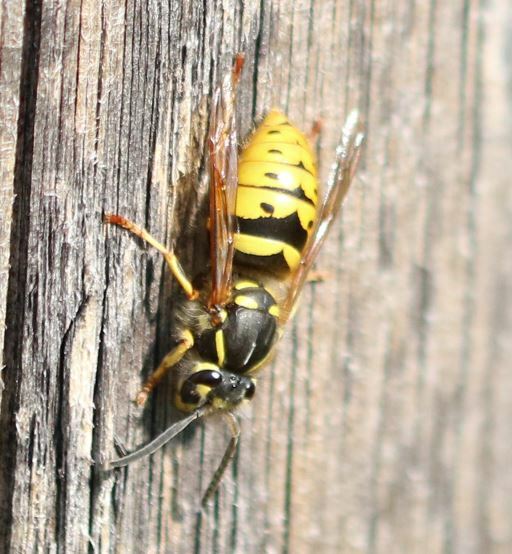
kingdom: Animalia
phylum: Arthropoda
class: Insecta
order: Hymenoptera
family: Vespidae
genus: Vespula
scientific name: Vespula vulgaris
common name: Common wasp
